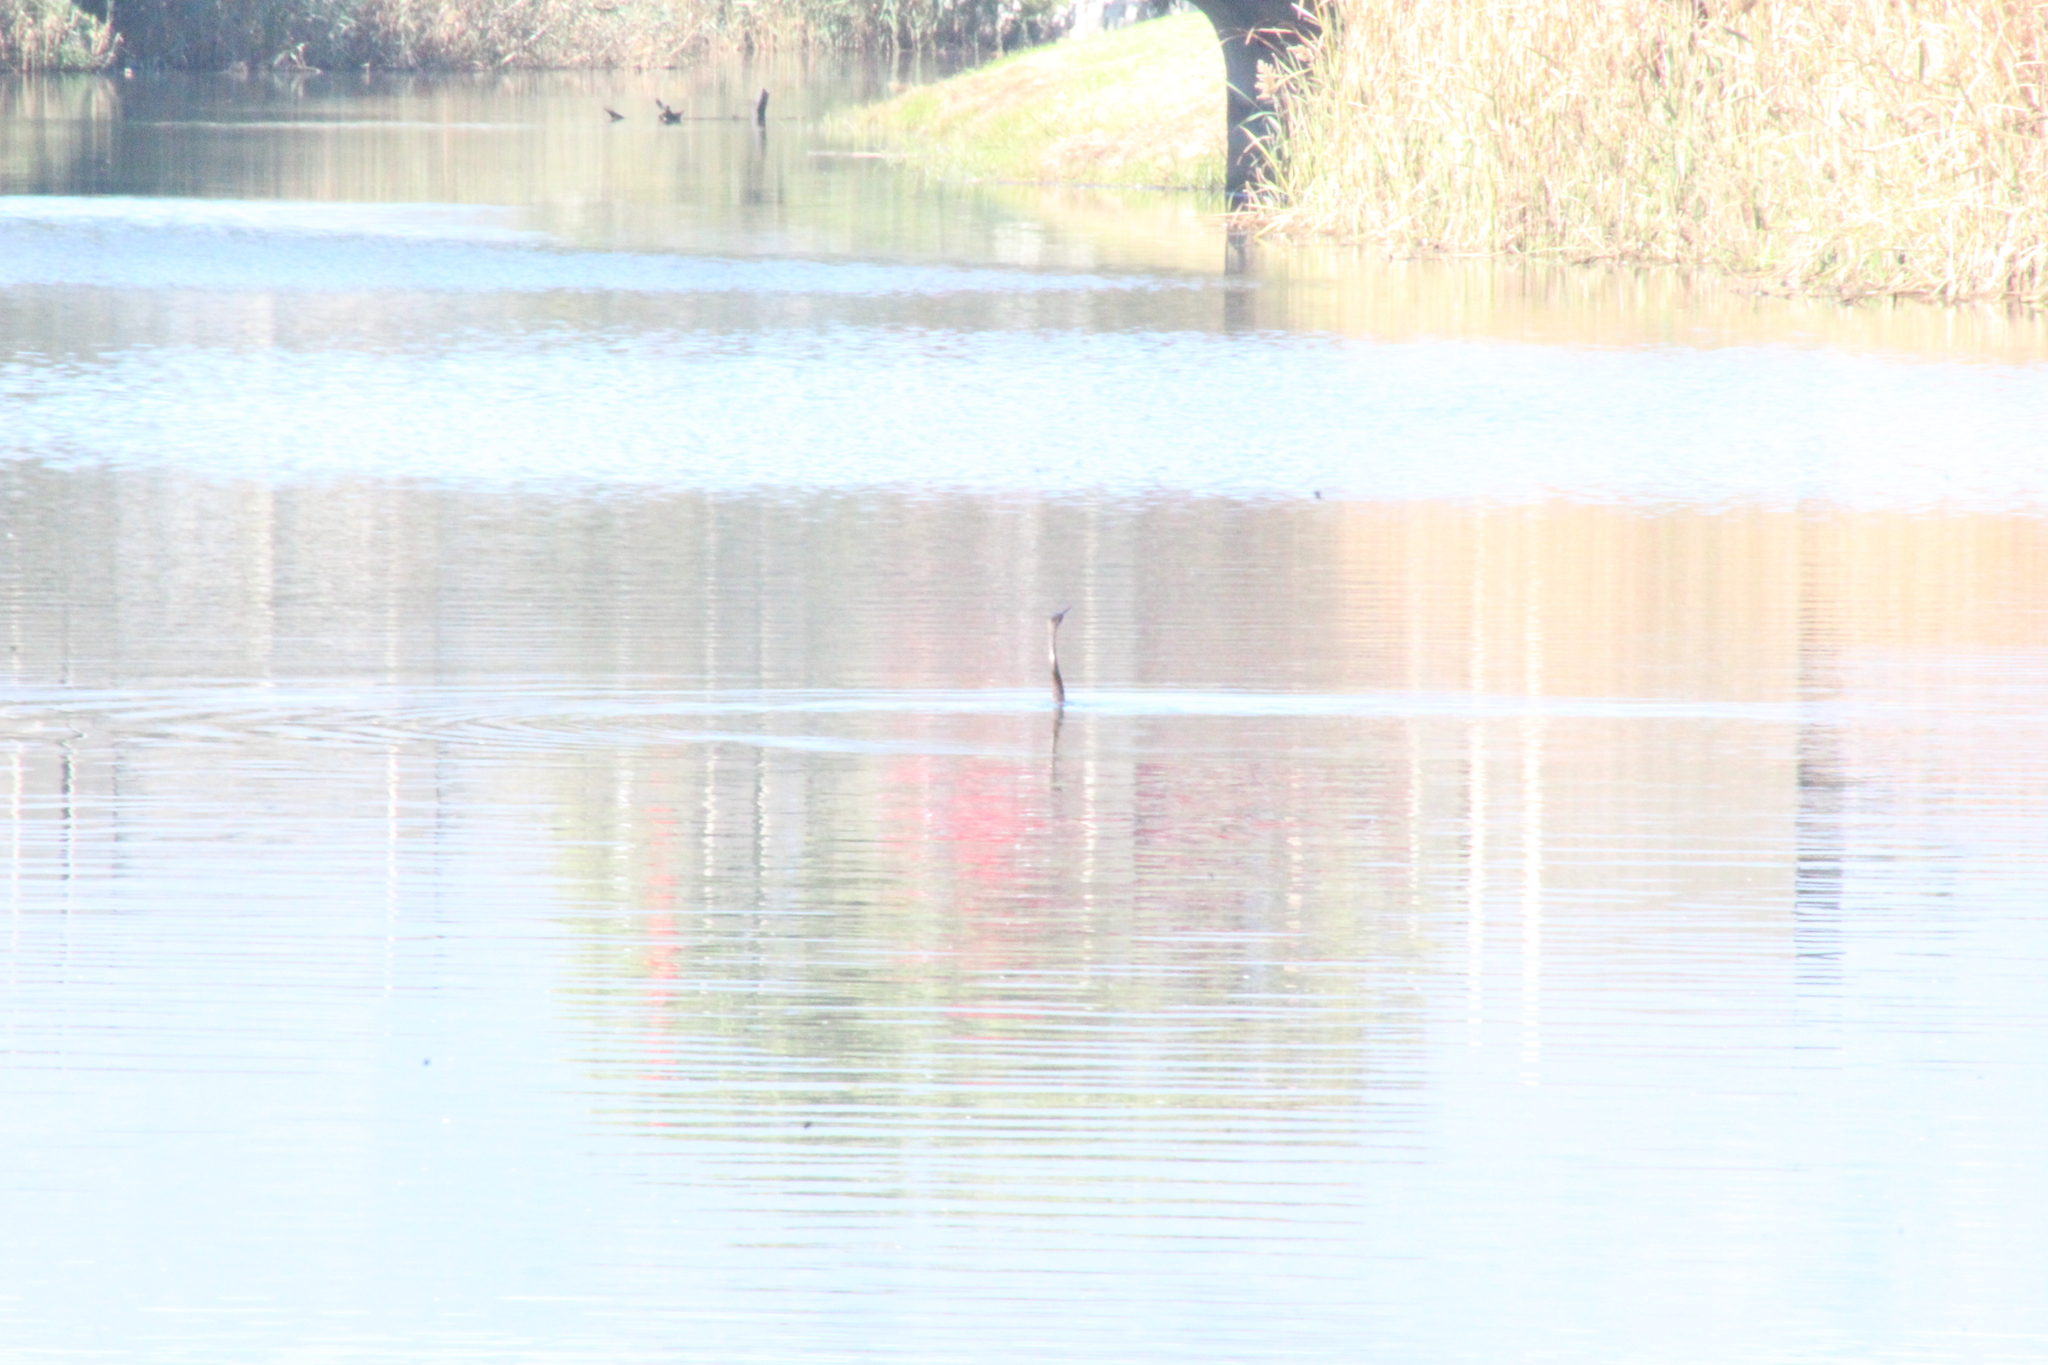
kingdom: Animalia
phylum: Chordata
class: Aves
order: Suliformes
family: Anhingidae
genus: Anhinga
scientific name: Anhinga rufa
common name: African darter
